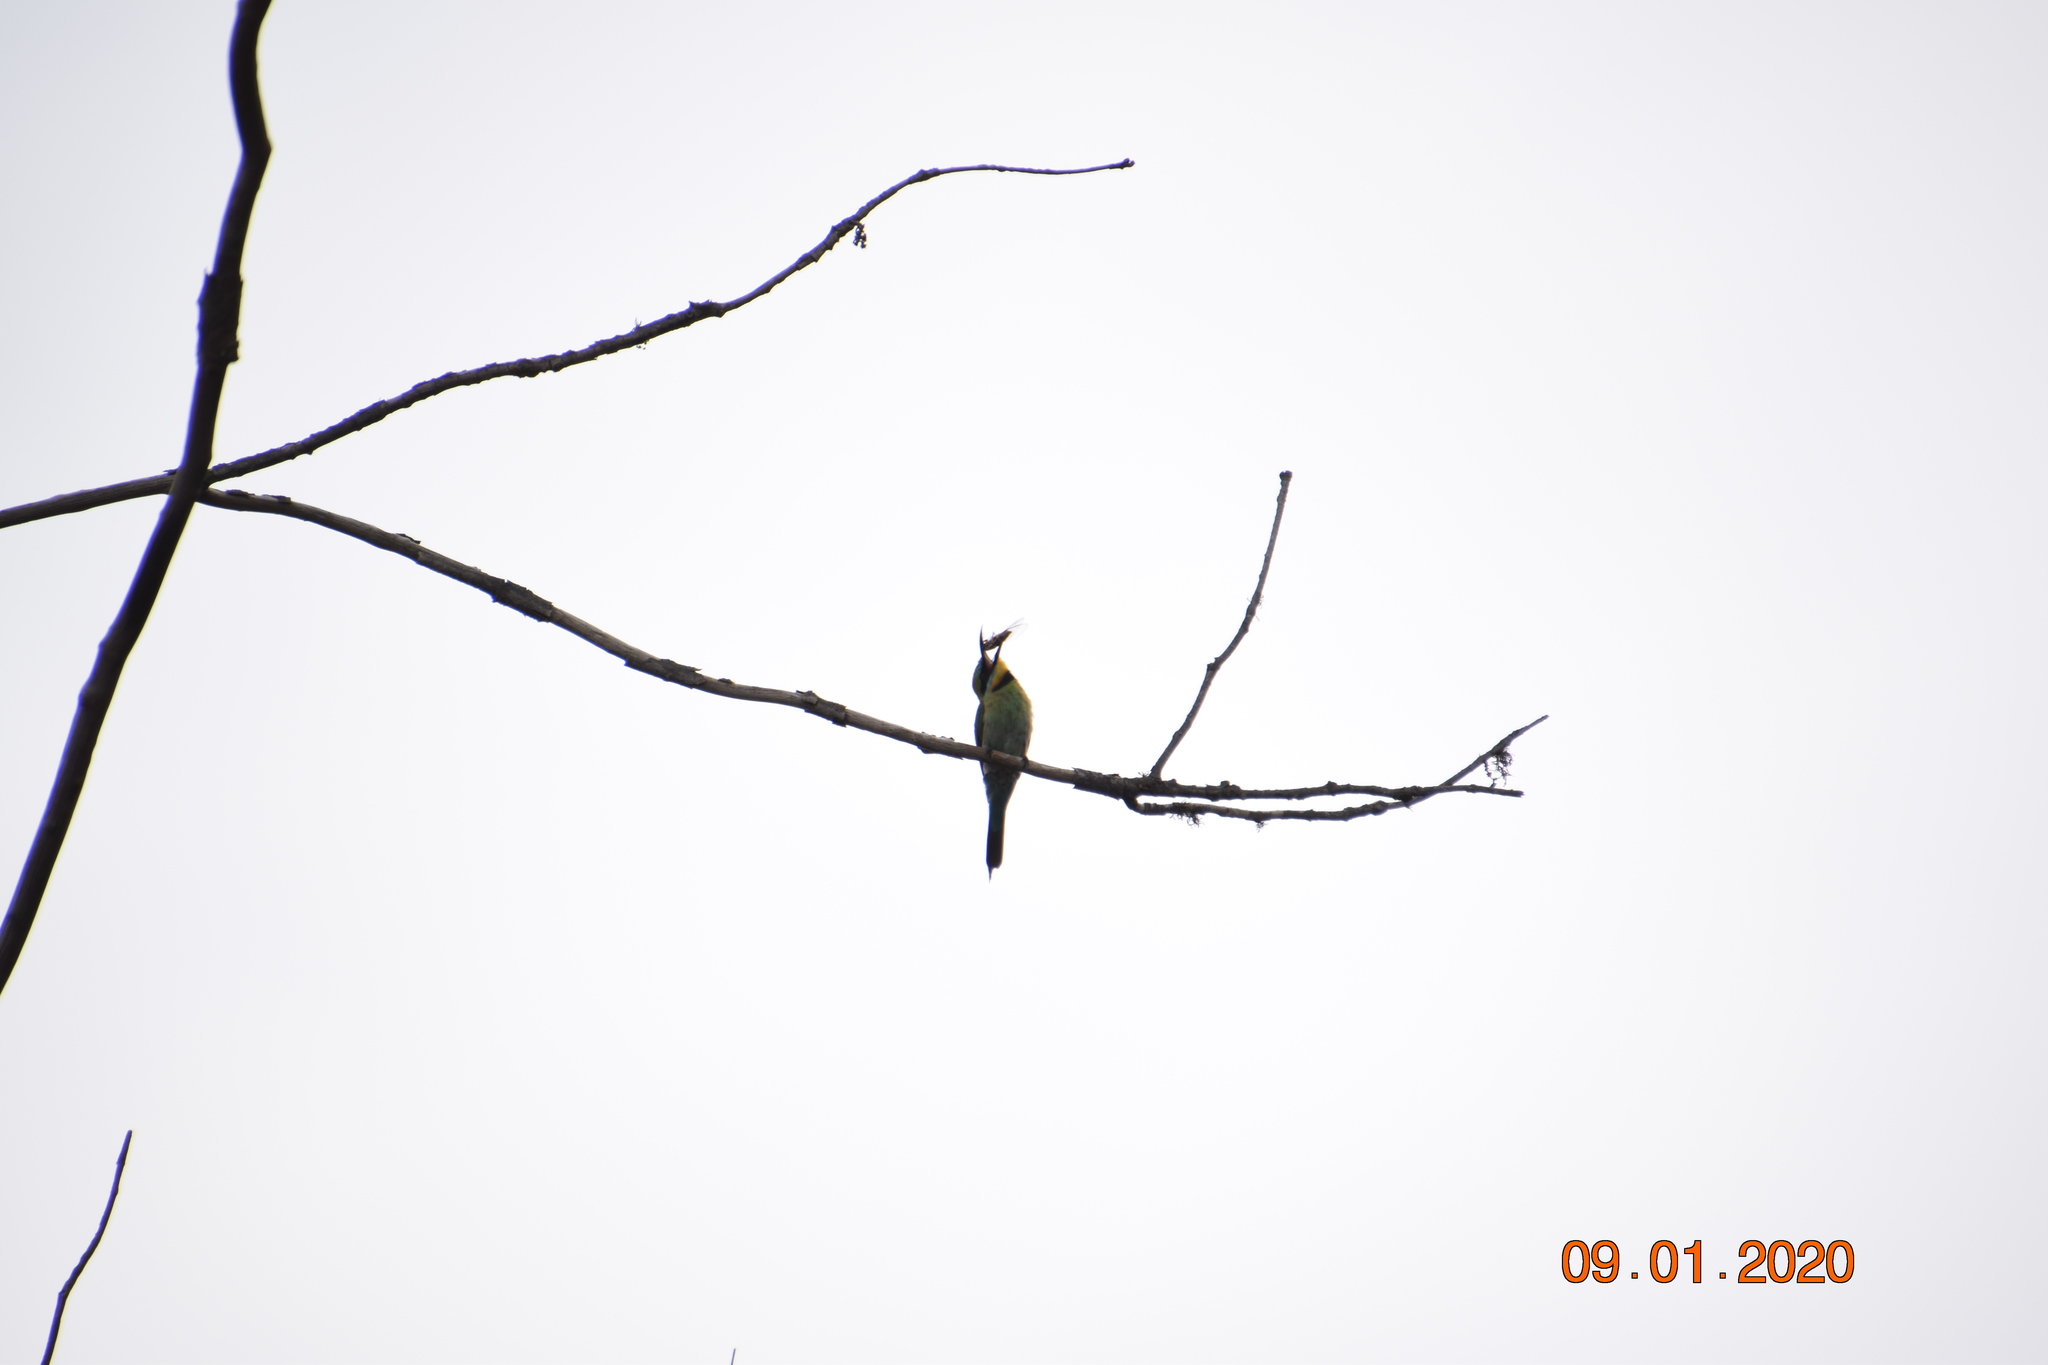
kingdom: Animalia
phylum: Chordata
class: Aves
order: Coraciiformes
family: Meropidae
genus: Merops
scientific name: Merops ornatus
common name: Rainbow bee-eater
